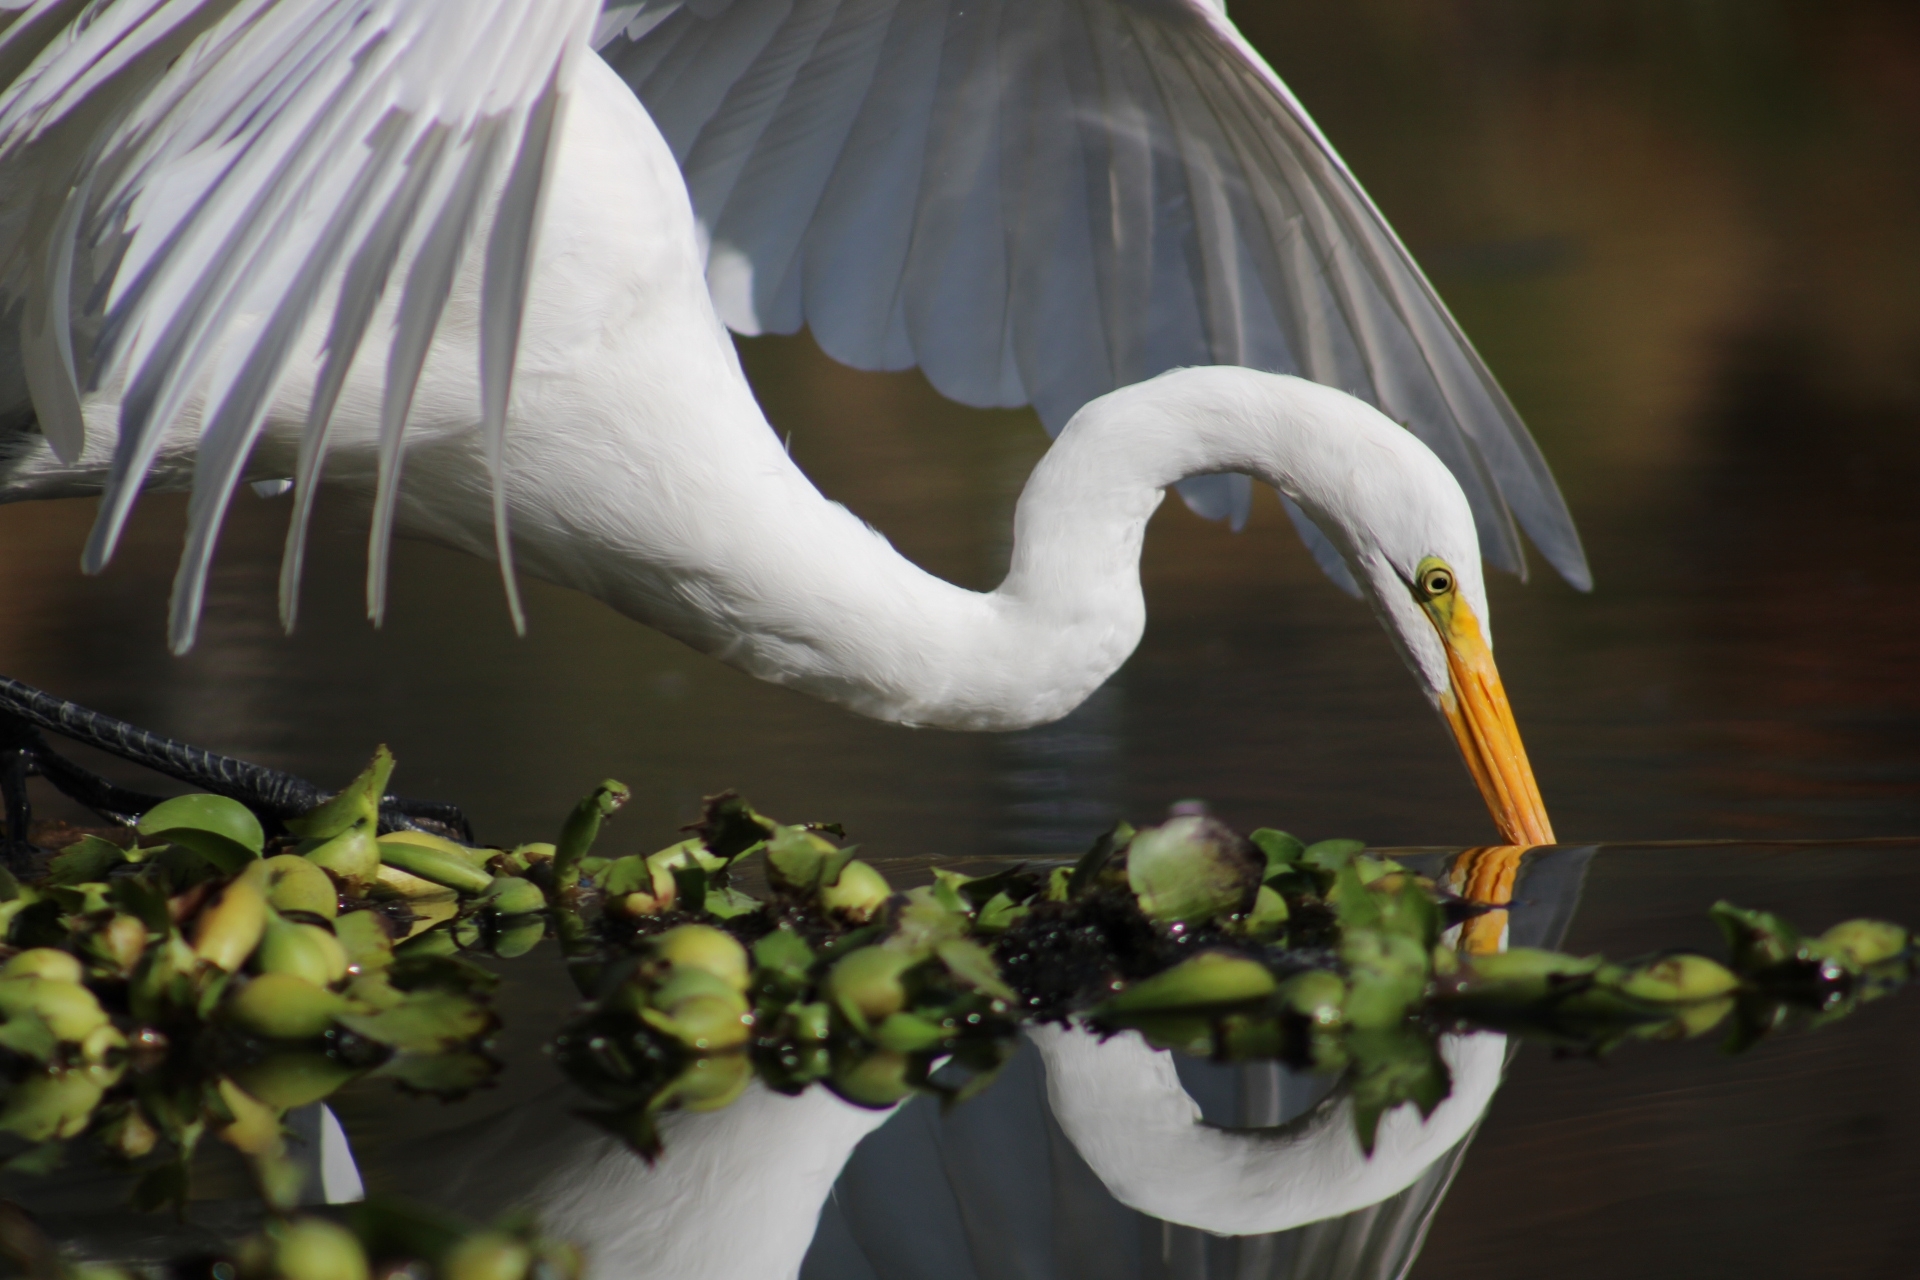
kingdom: Animalia
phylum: Chordata
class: Aves
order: Pelecaniformes
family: Ardeidae
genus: Ardea
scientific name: Ardea alba
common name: Great egret
